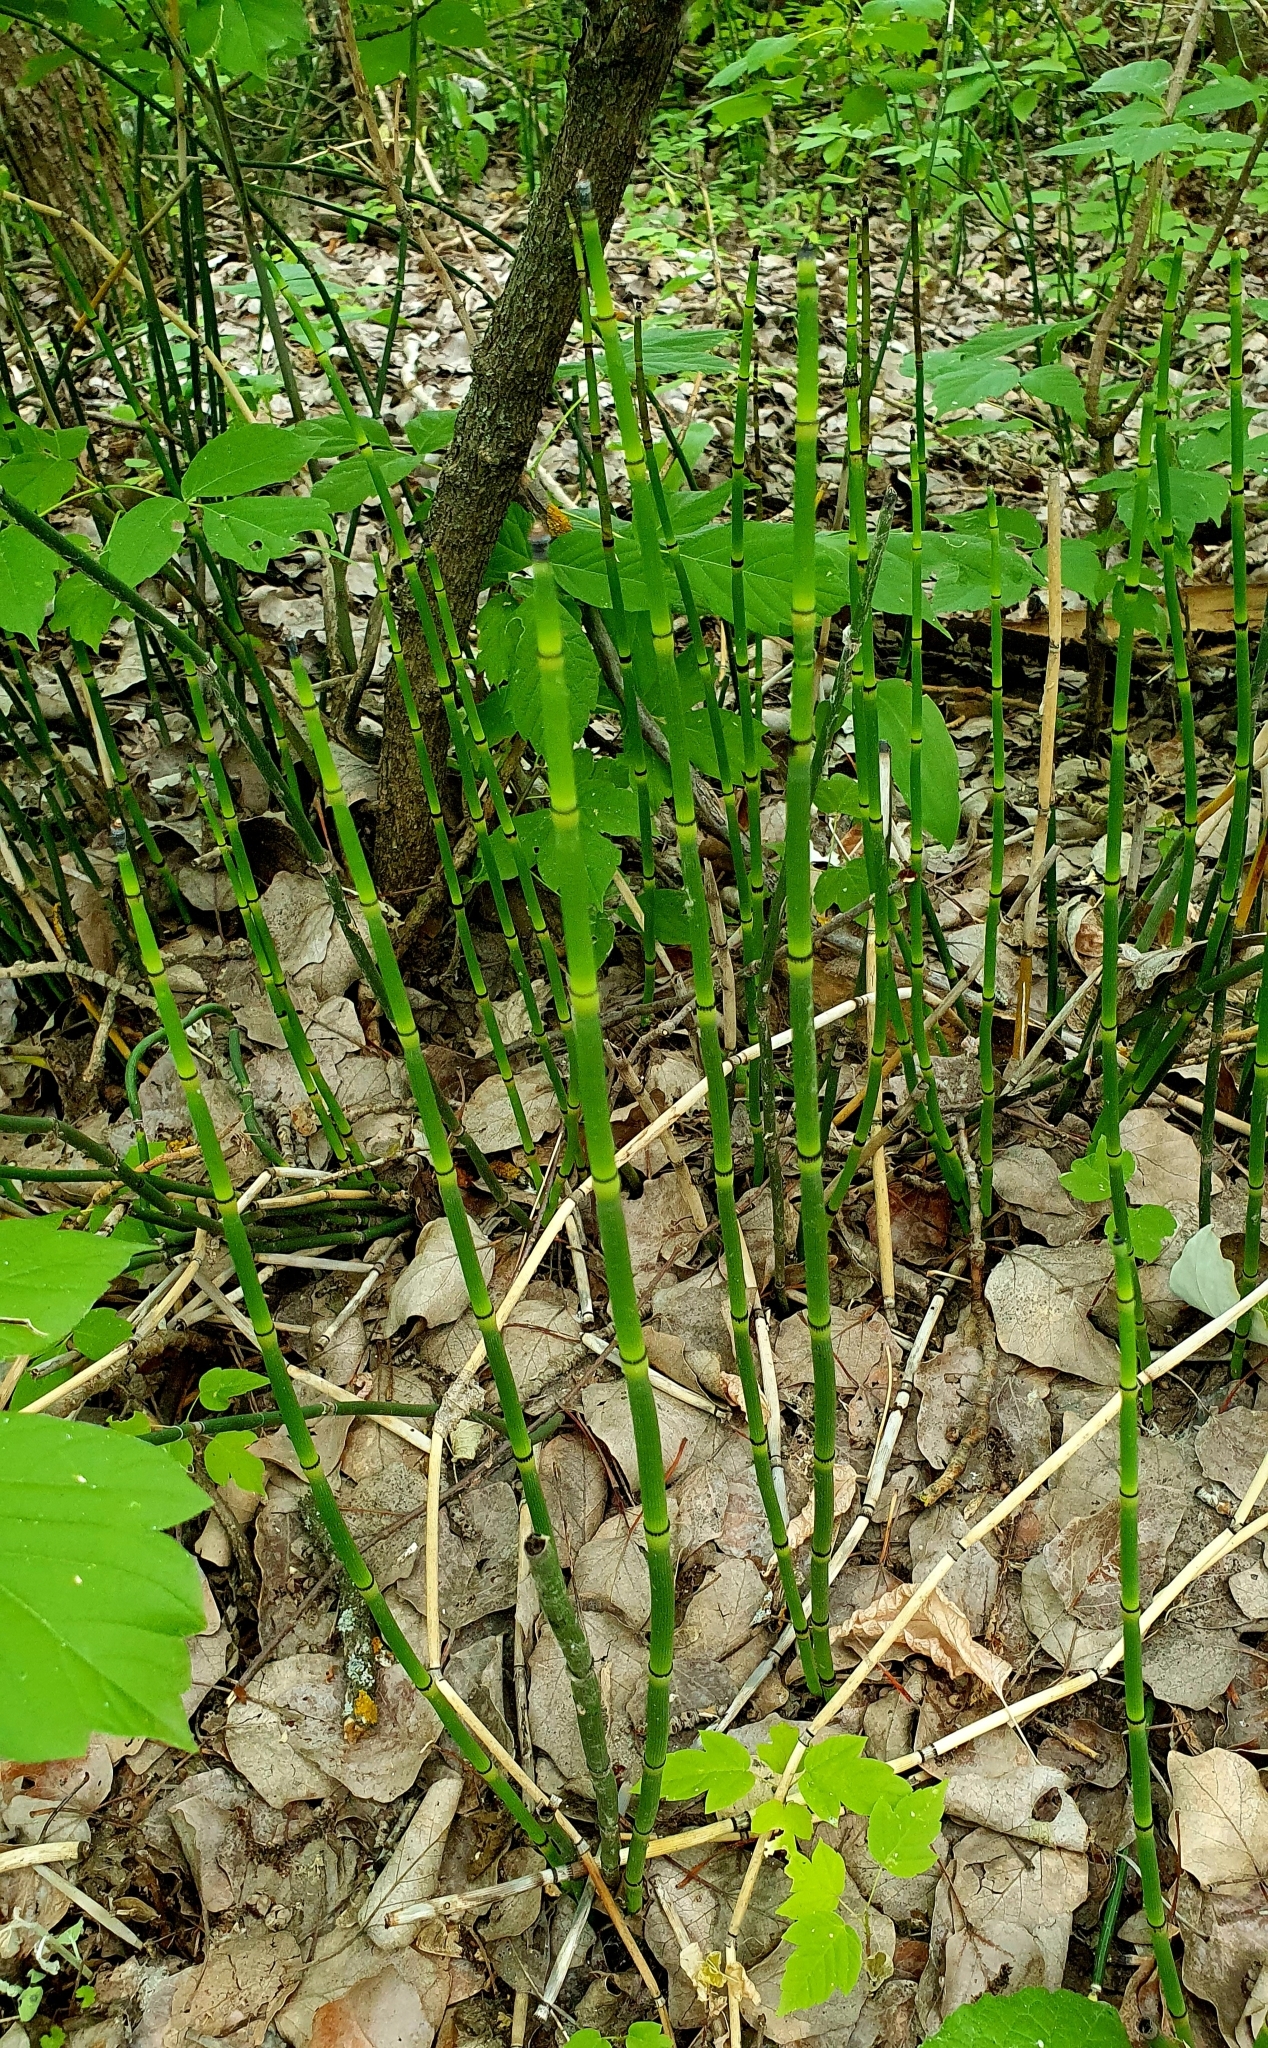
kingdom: Plantae
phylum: Tracheophyta
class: Polypodiopsida
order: Equisetales
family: Equisetaceae
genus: Equisetum
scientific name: Equisetum hyemale
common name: Rough horsetail
